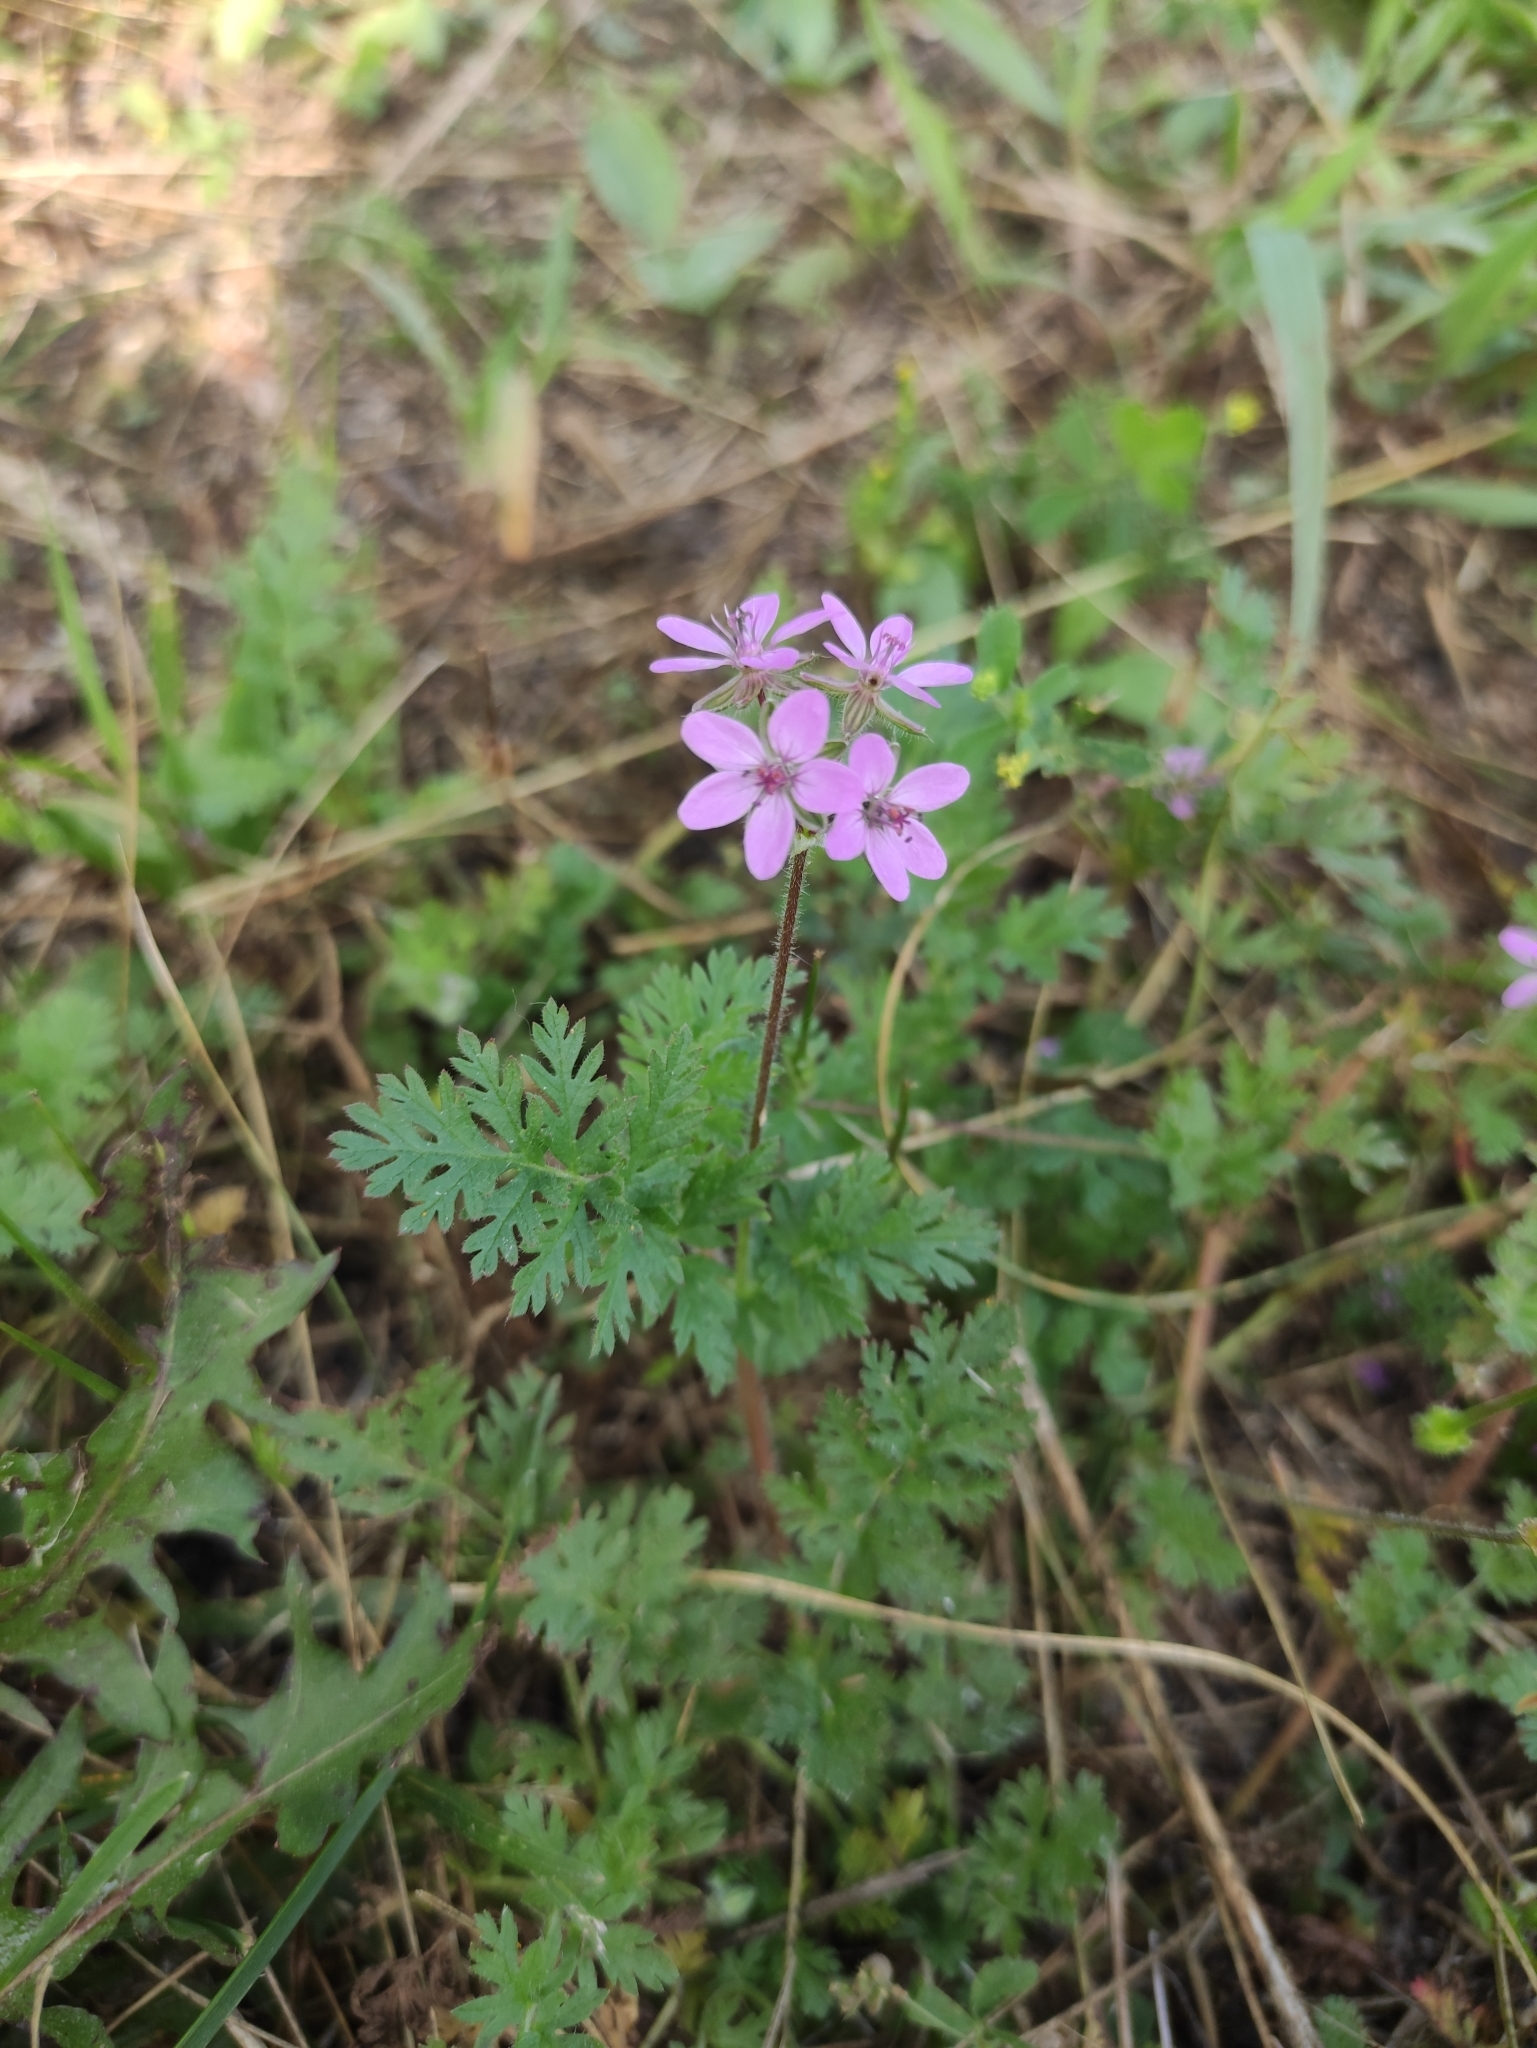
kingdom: Plantae
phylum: Tracheophyta
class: Magnoliopsida
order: Geraniales
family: Geraniaceae
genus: Erodium
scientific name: Erodium cicutarium
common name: Common stork's-bill
